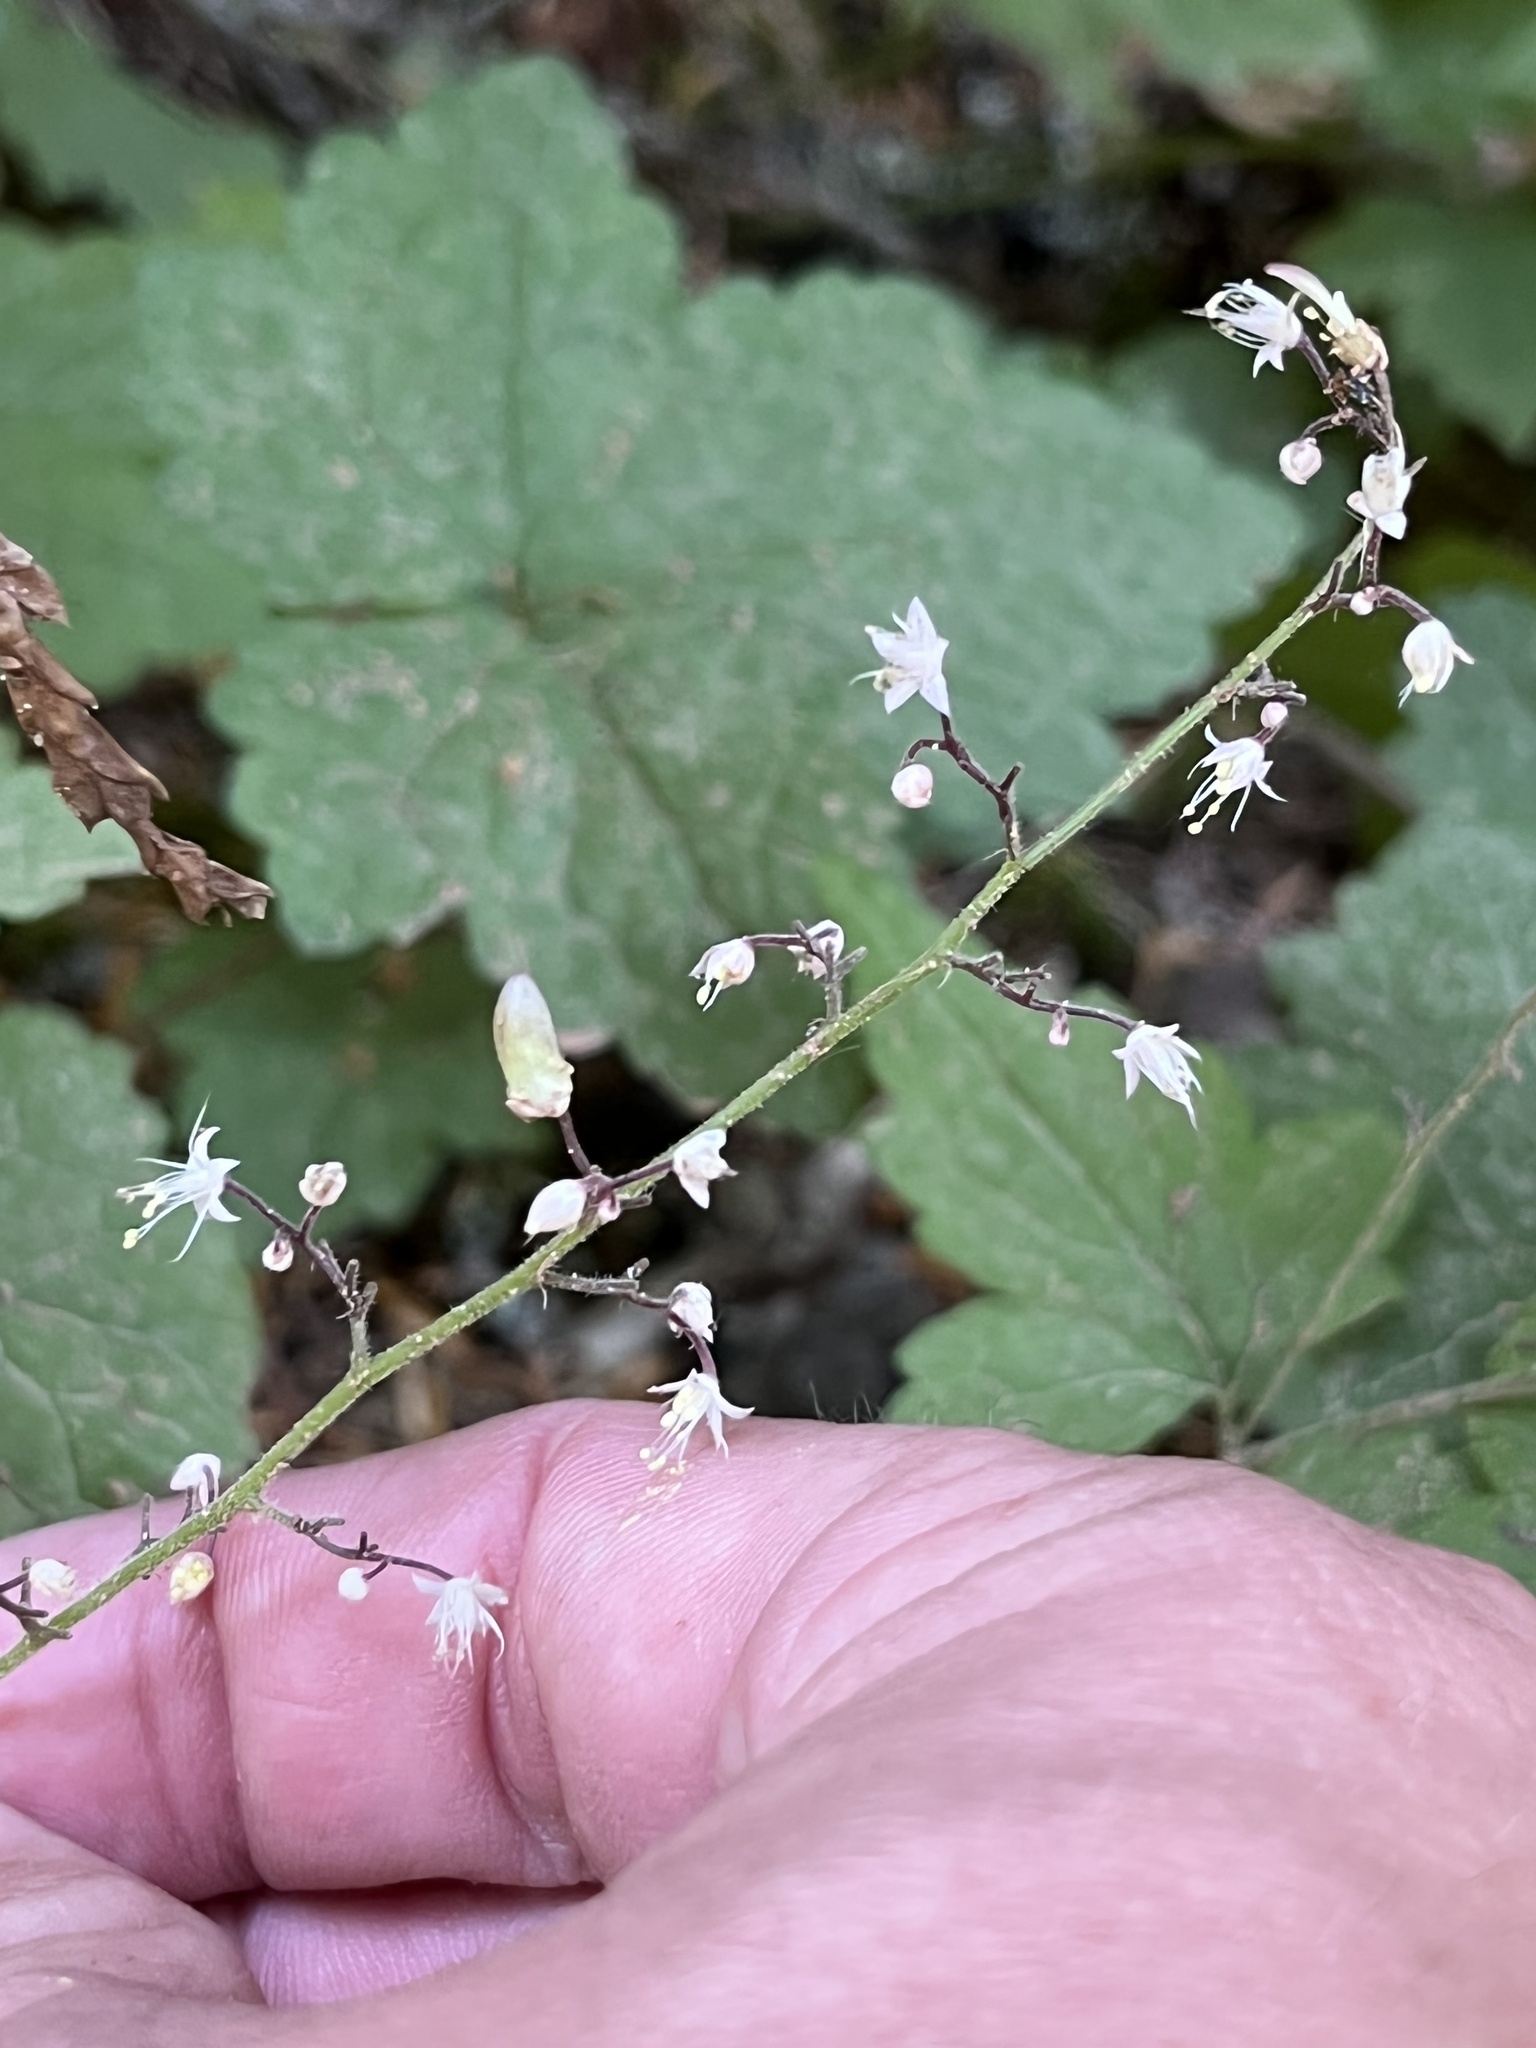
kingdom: Plantae
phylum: Tracheophyta
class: Magnoliopsida
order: Saxifragales
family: Saxifragaceae
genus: Tiarella
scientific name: Tiarella trifoliata
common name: Sugar-scoop
